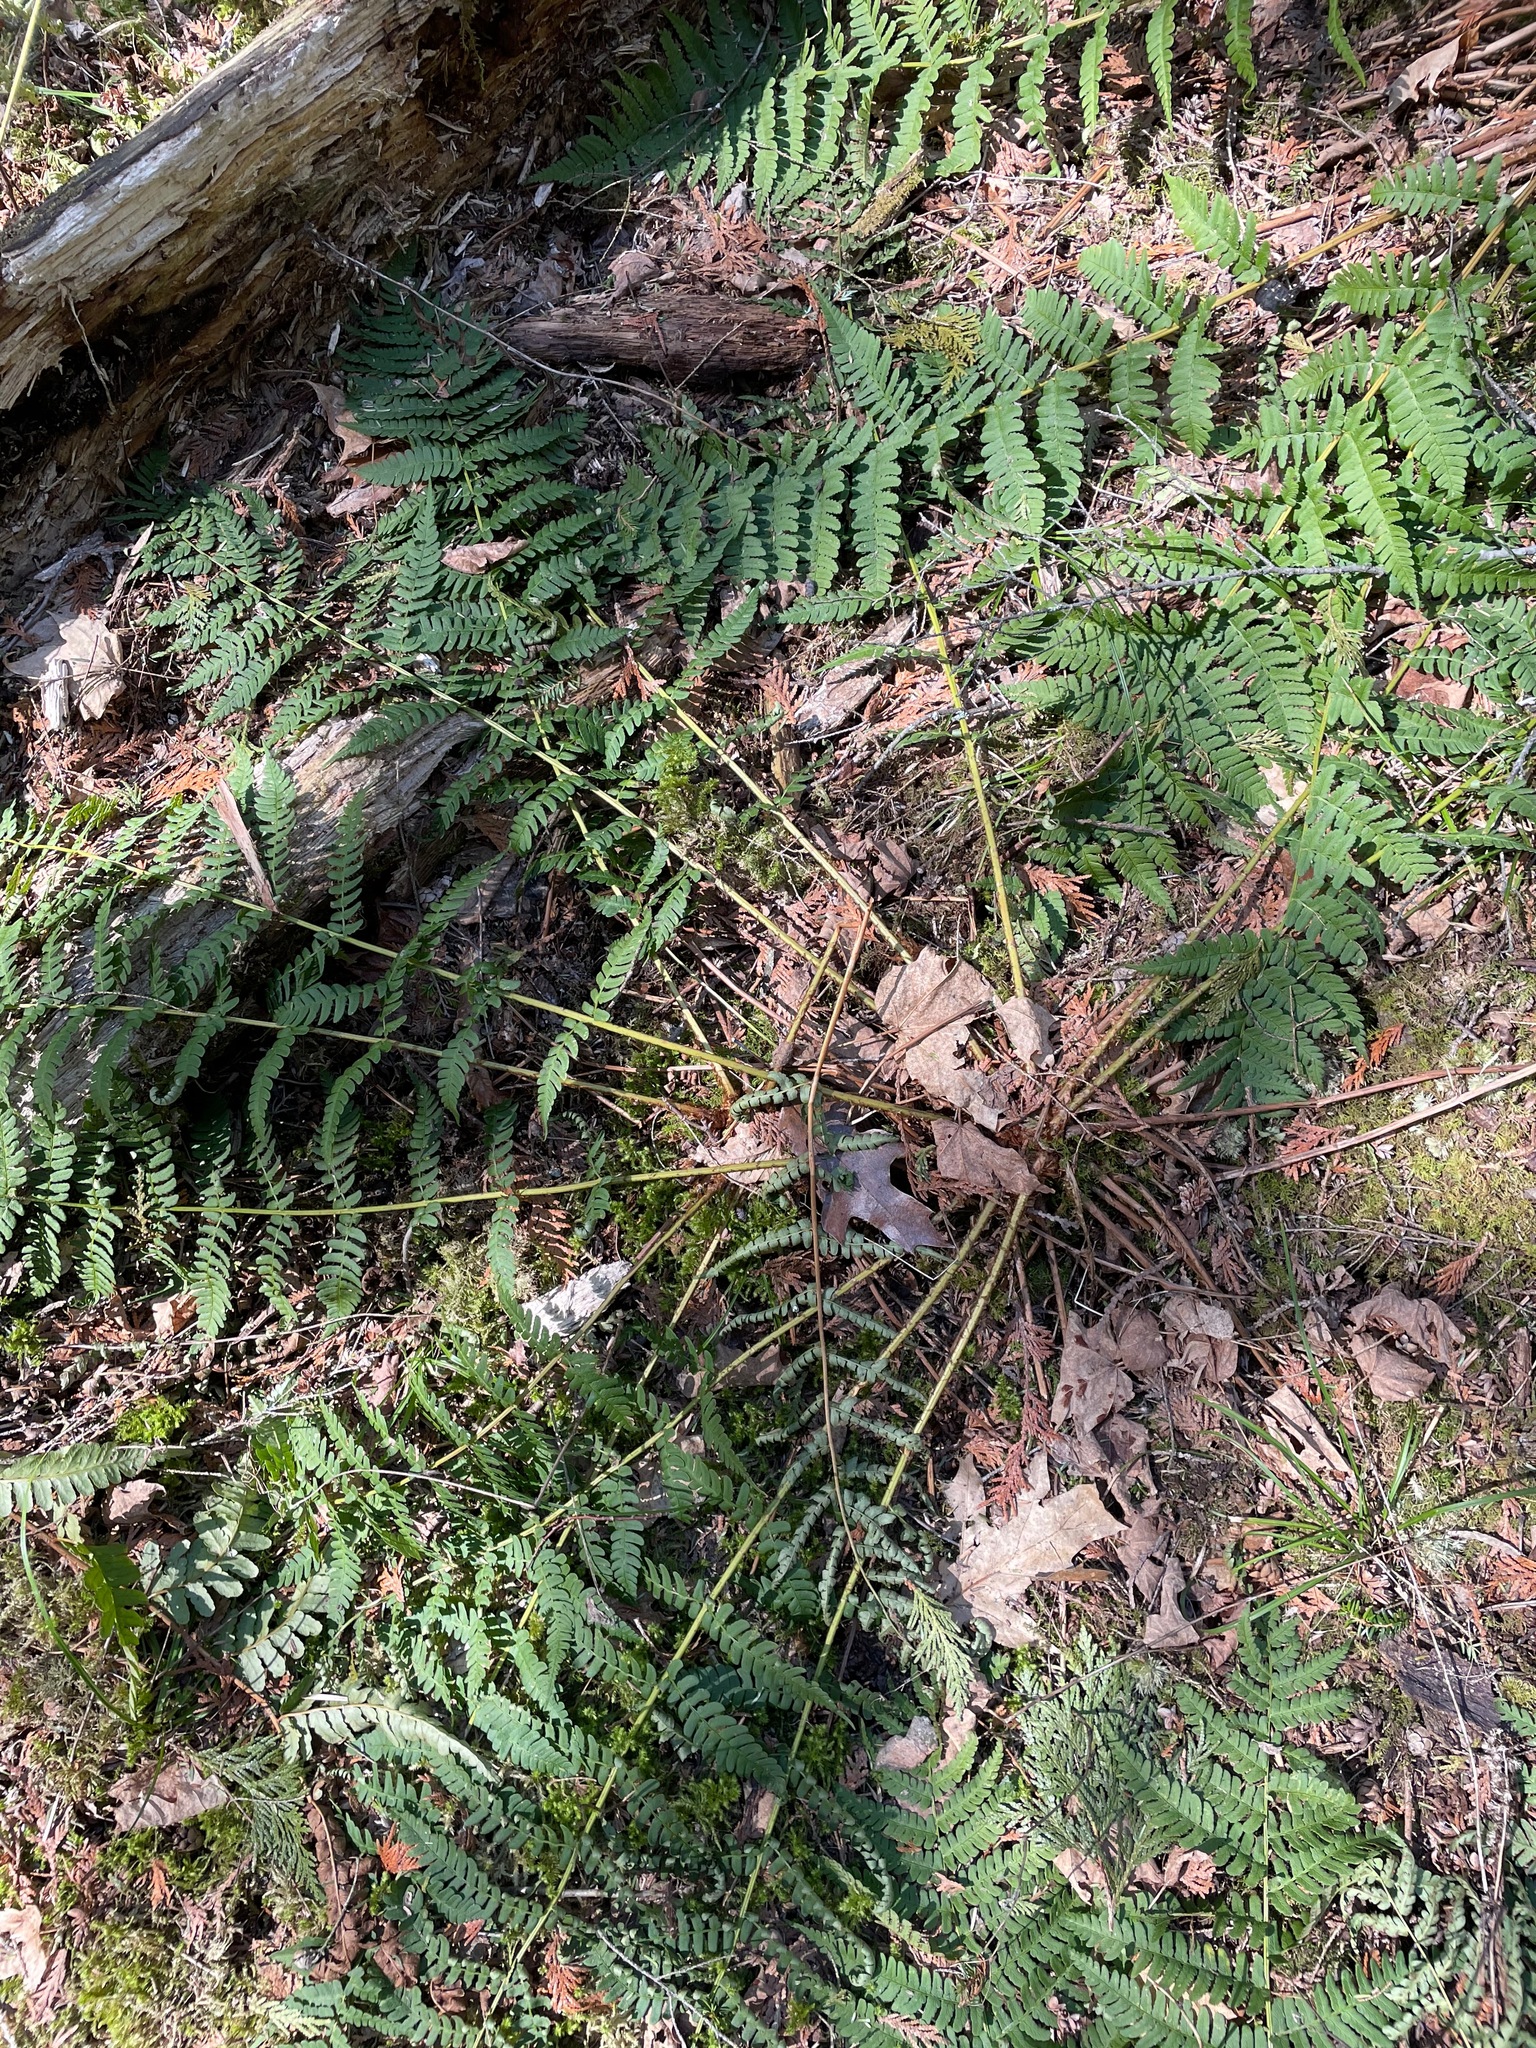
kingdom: Plantae
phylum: Tracheophyta
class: Polypodiopsida
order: Polypodiales
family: Dryopteridaceae
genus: Dryopteris
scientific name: Dryopteris marginalis
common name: Marginal wood fern
